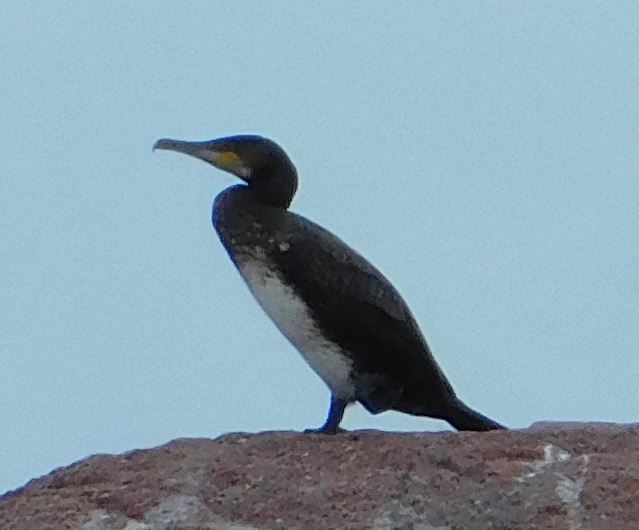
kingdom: Animalia
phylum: Chordata
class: Aves
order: Suliformes
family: Phalacrocoracidae
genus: Phalacrocorax
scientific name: Phalacrocorax carbo
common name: Great cormorant
